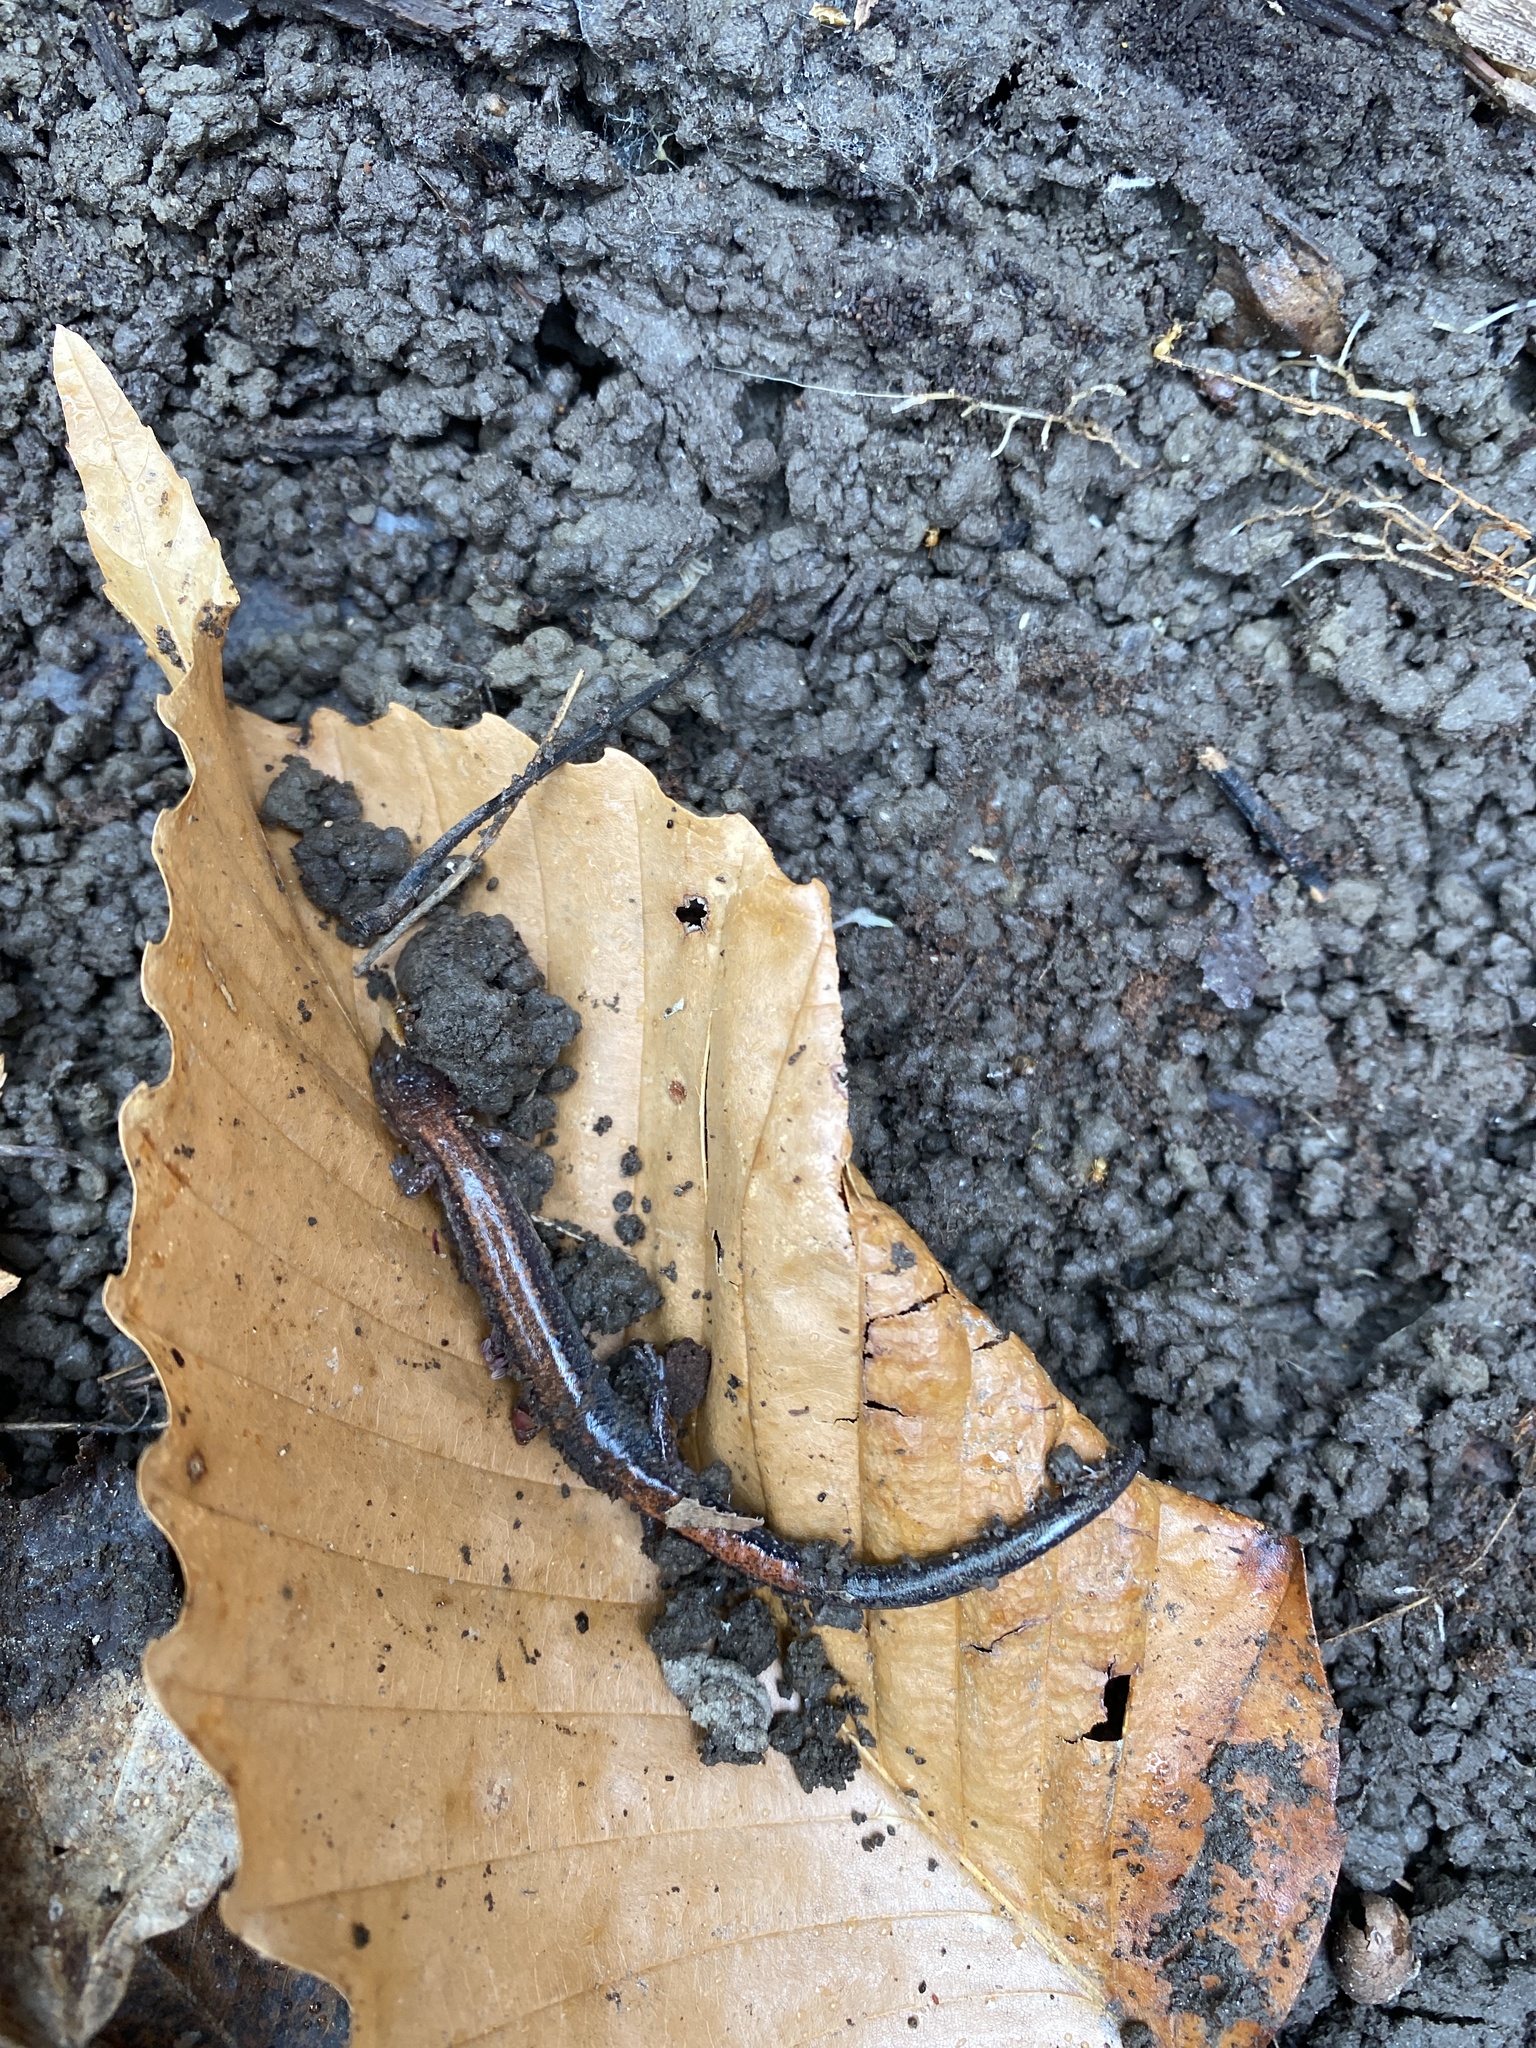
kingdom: Animalia
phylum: Chordata
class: Amphibia
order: Caudata
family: Plethodontidae
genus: Plethodon
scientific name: Plethodon cinereus
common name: Redback salamander
